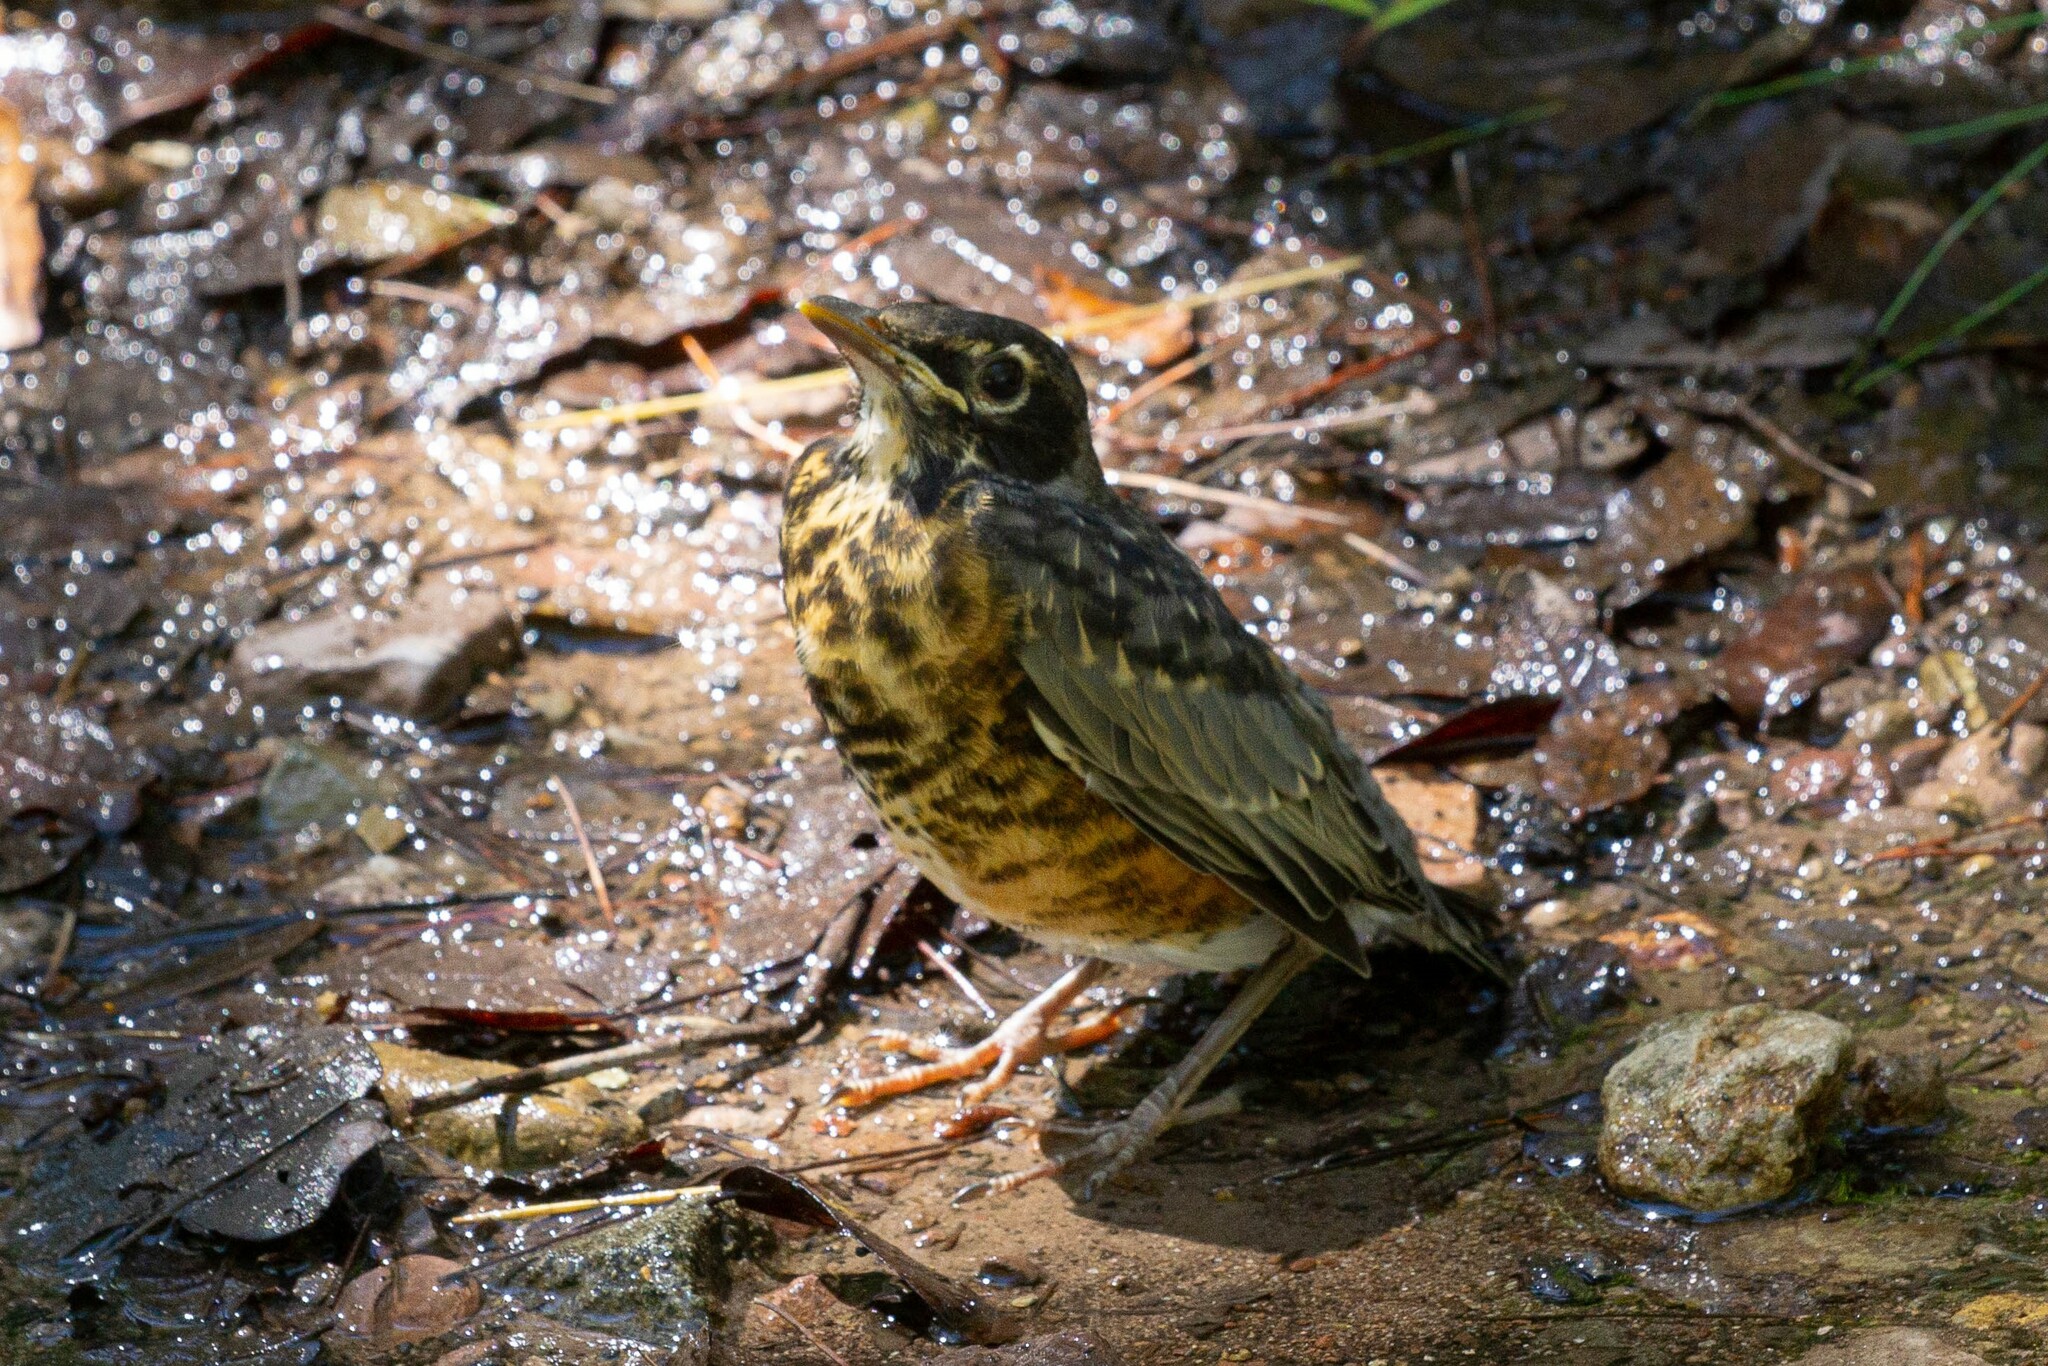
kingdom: Animalia
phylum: Chordata
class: Aves
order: Passeriformes
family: Turdidae
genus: Turdus
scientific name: Turdus migratorius
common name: American robin
